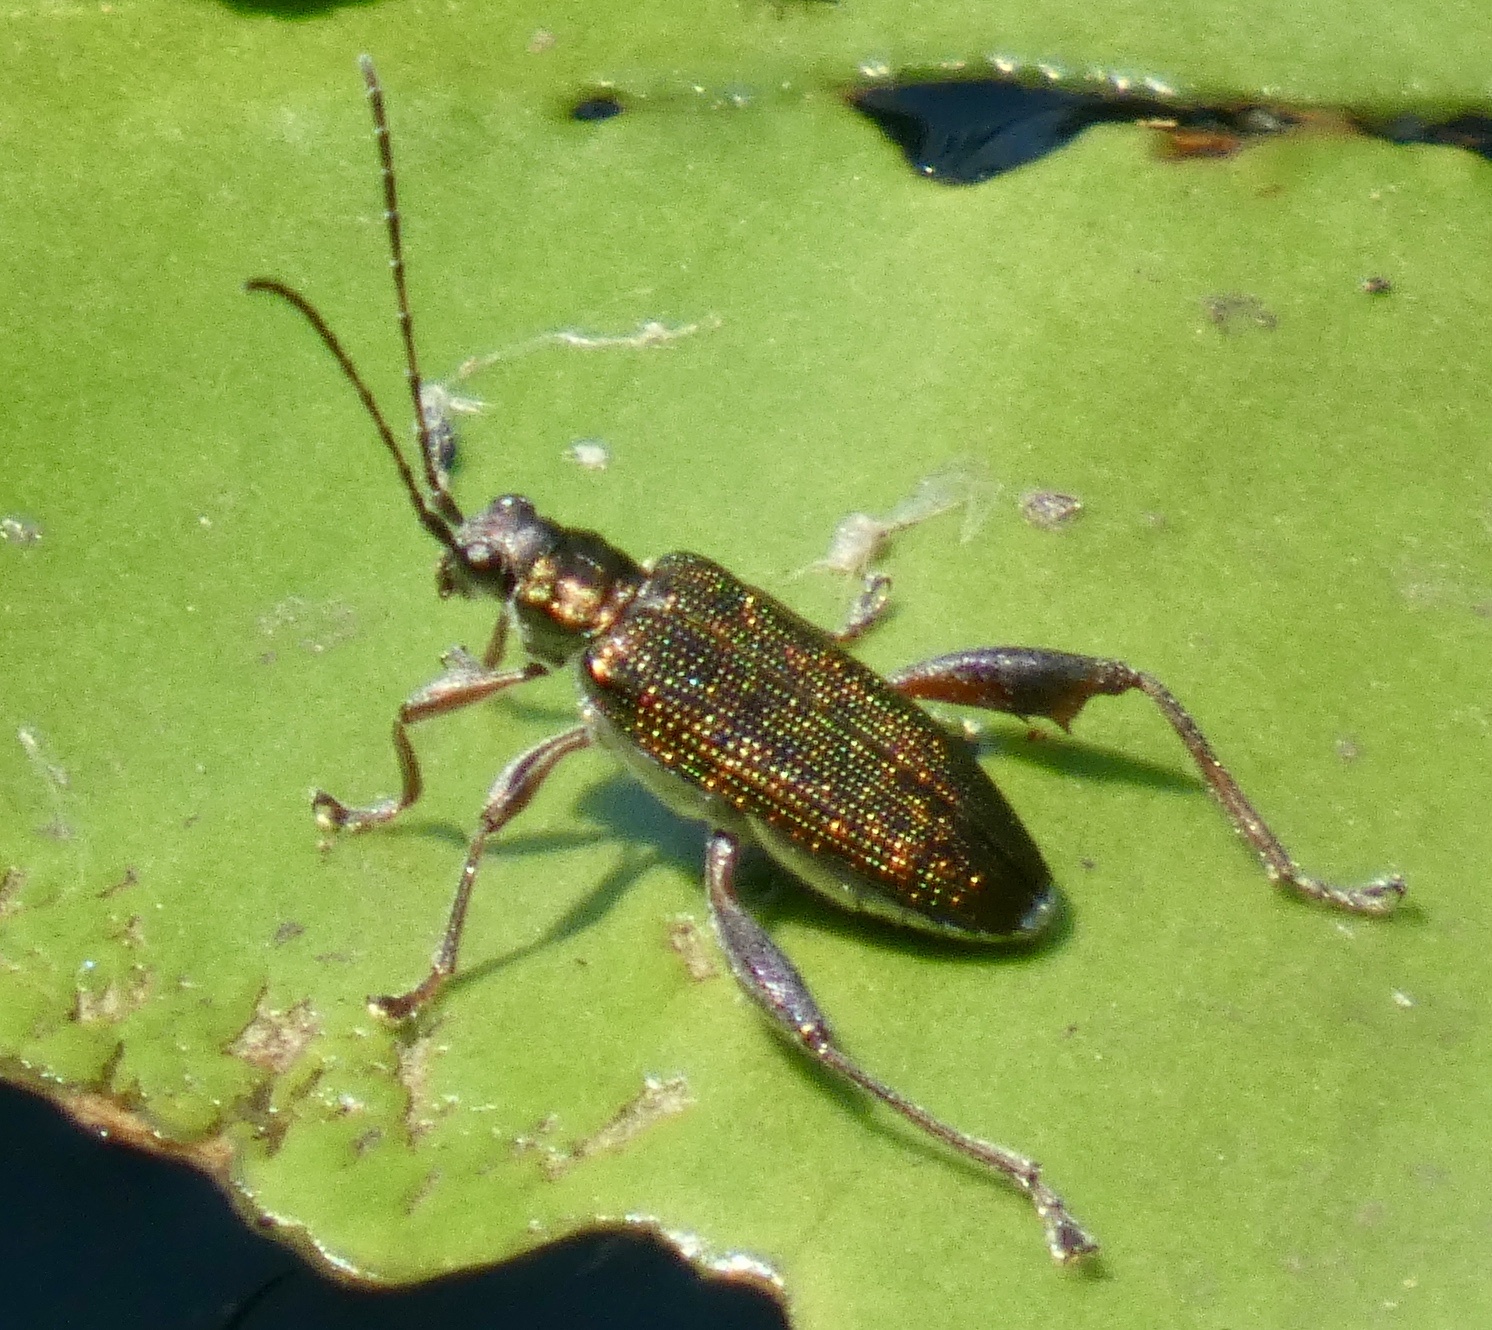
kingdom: Animalia
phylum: Arthropoda
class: Insecta
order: Coleoptera
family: Chrysomelidae
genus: Donacia
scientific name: Donacia crassipes
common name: Water-lily reed beetle
